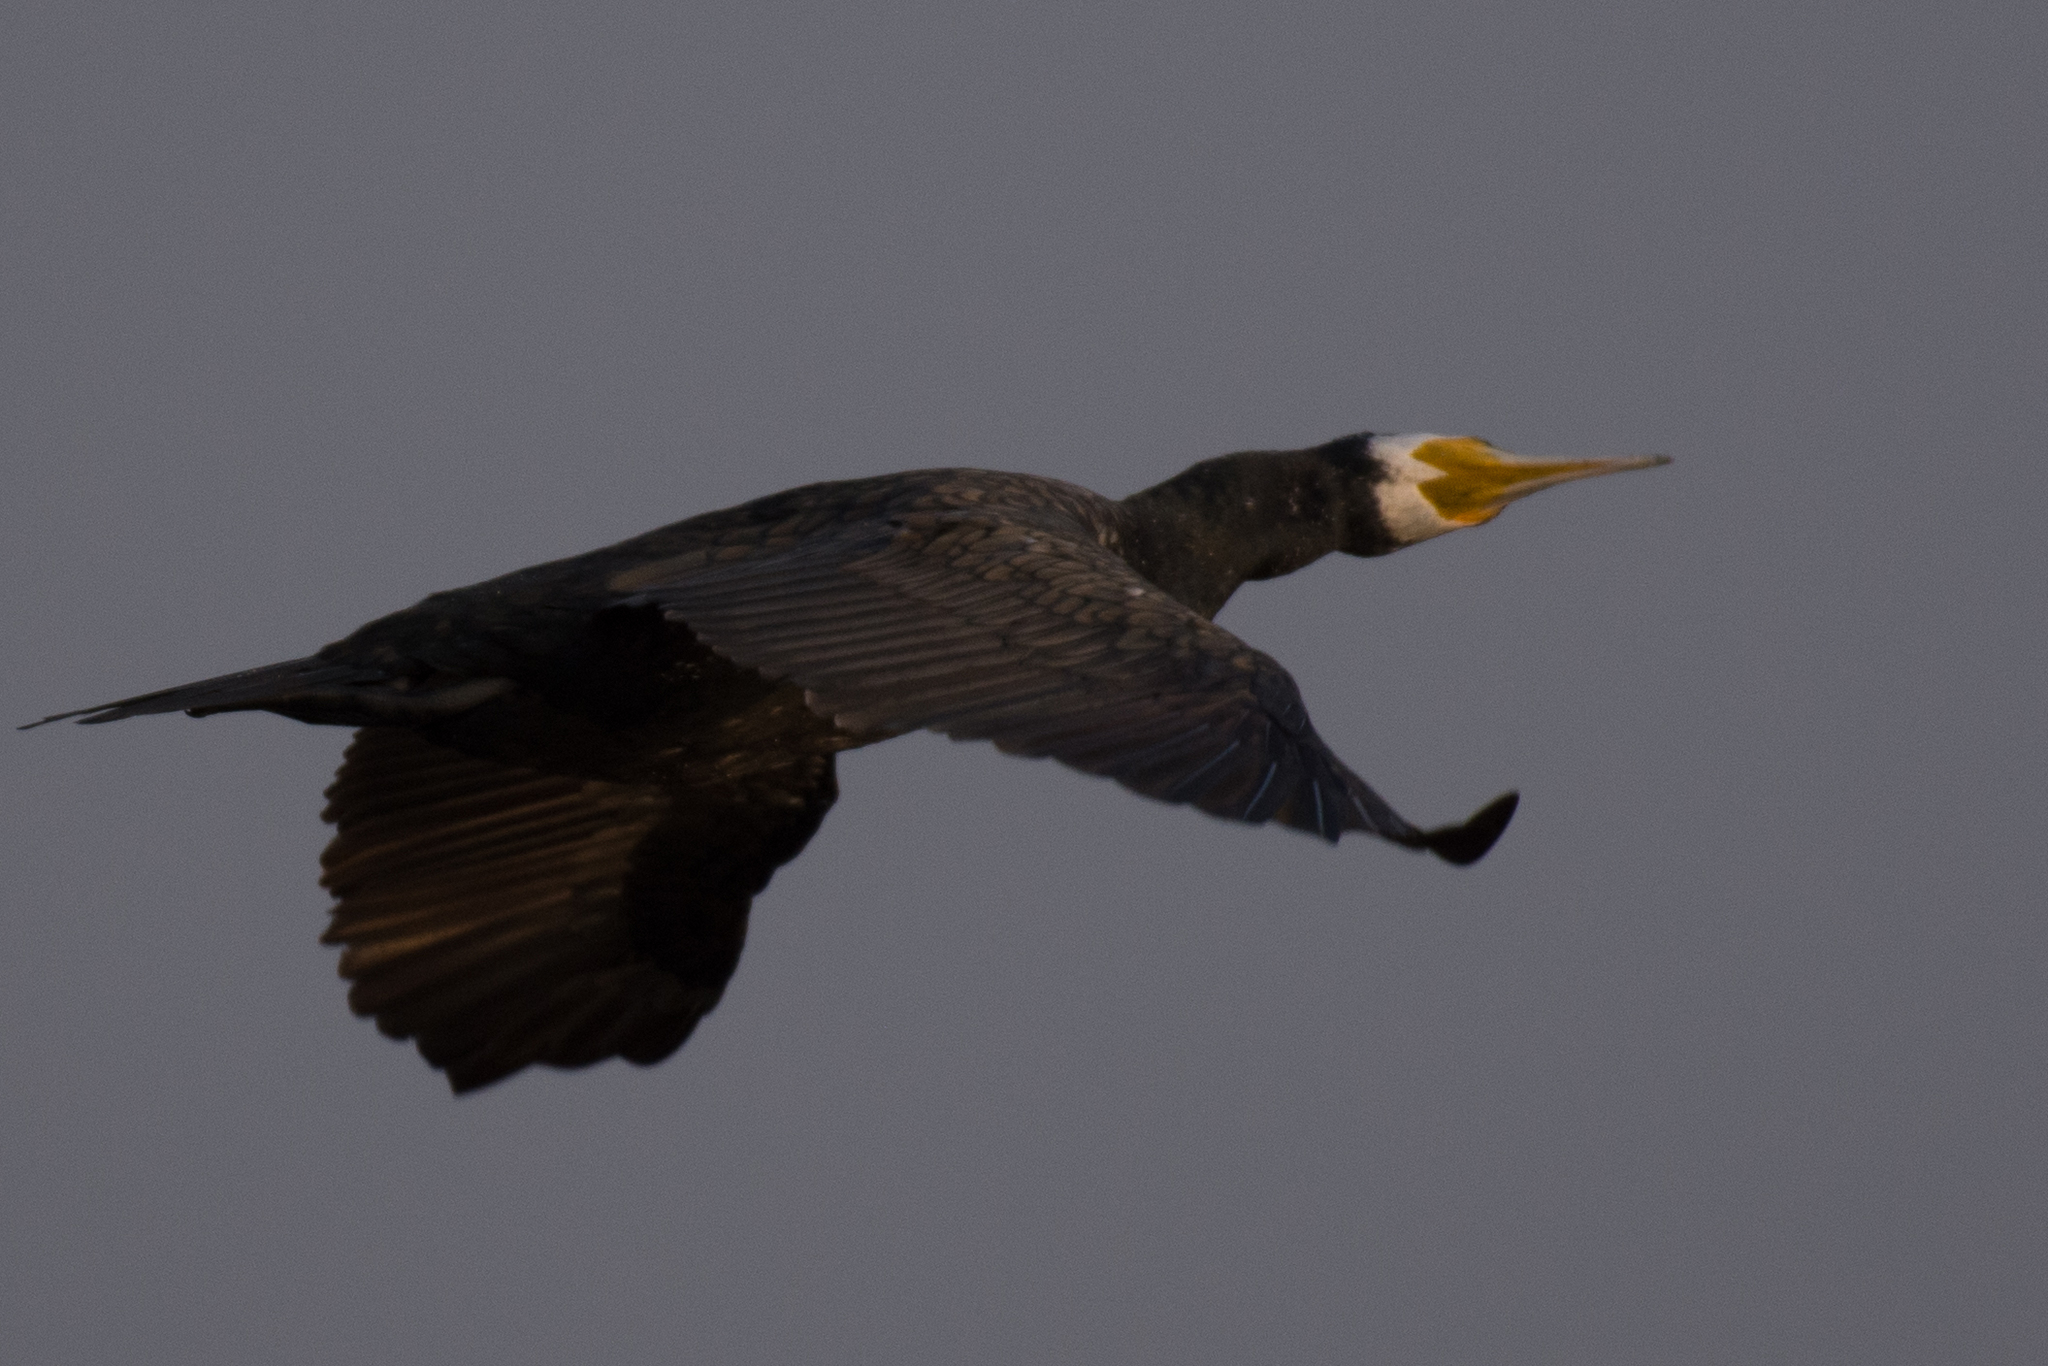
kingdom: Animalia
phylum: Chordata
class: Aves
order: Suliformes
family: Phalacrocoracidae
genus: Phalacrocorax
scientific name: Phalacrocorax carbo
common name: Great cormorant
